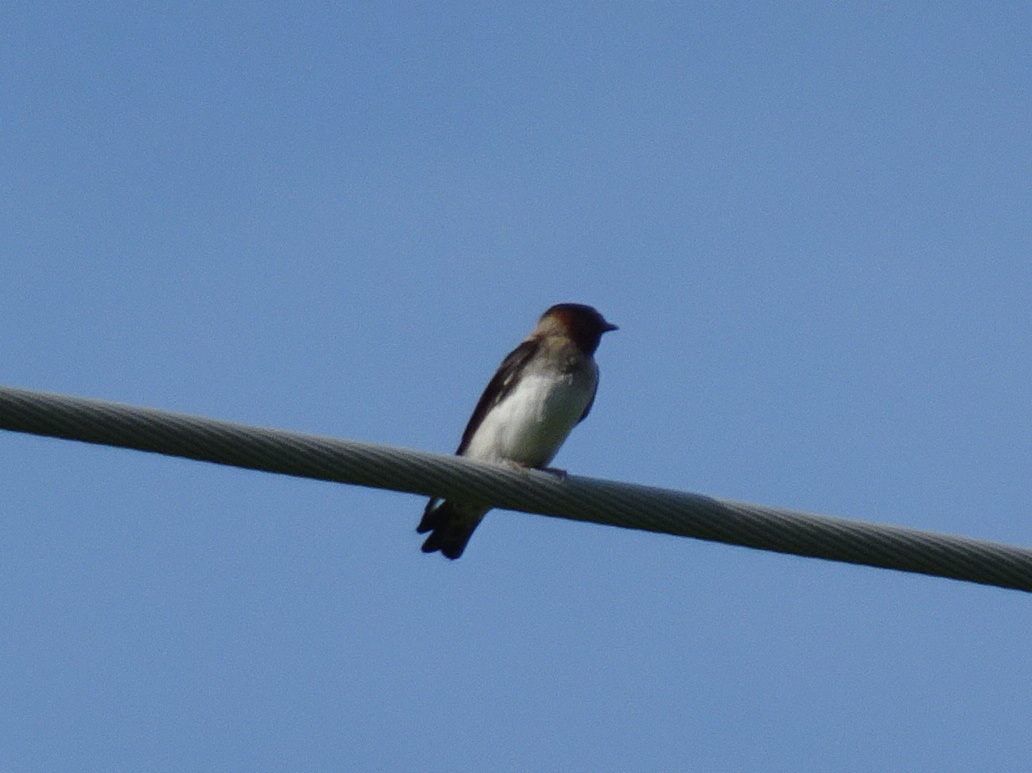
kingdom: Animalia
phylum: Chordata
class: Aves
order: Passeriformes
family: Hirundinidae
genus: Petrochelidon
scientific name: Petrochelidon pyrrhonota
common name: American cliff swallow
